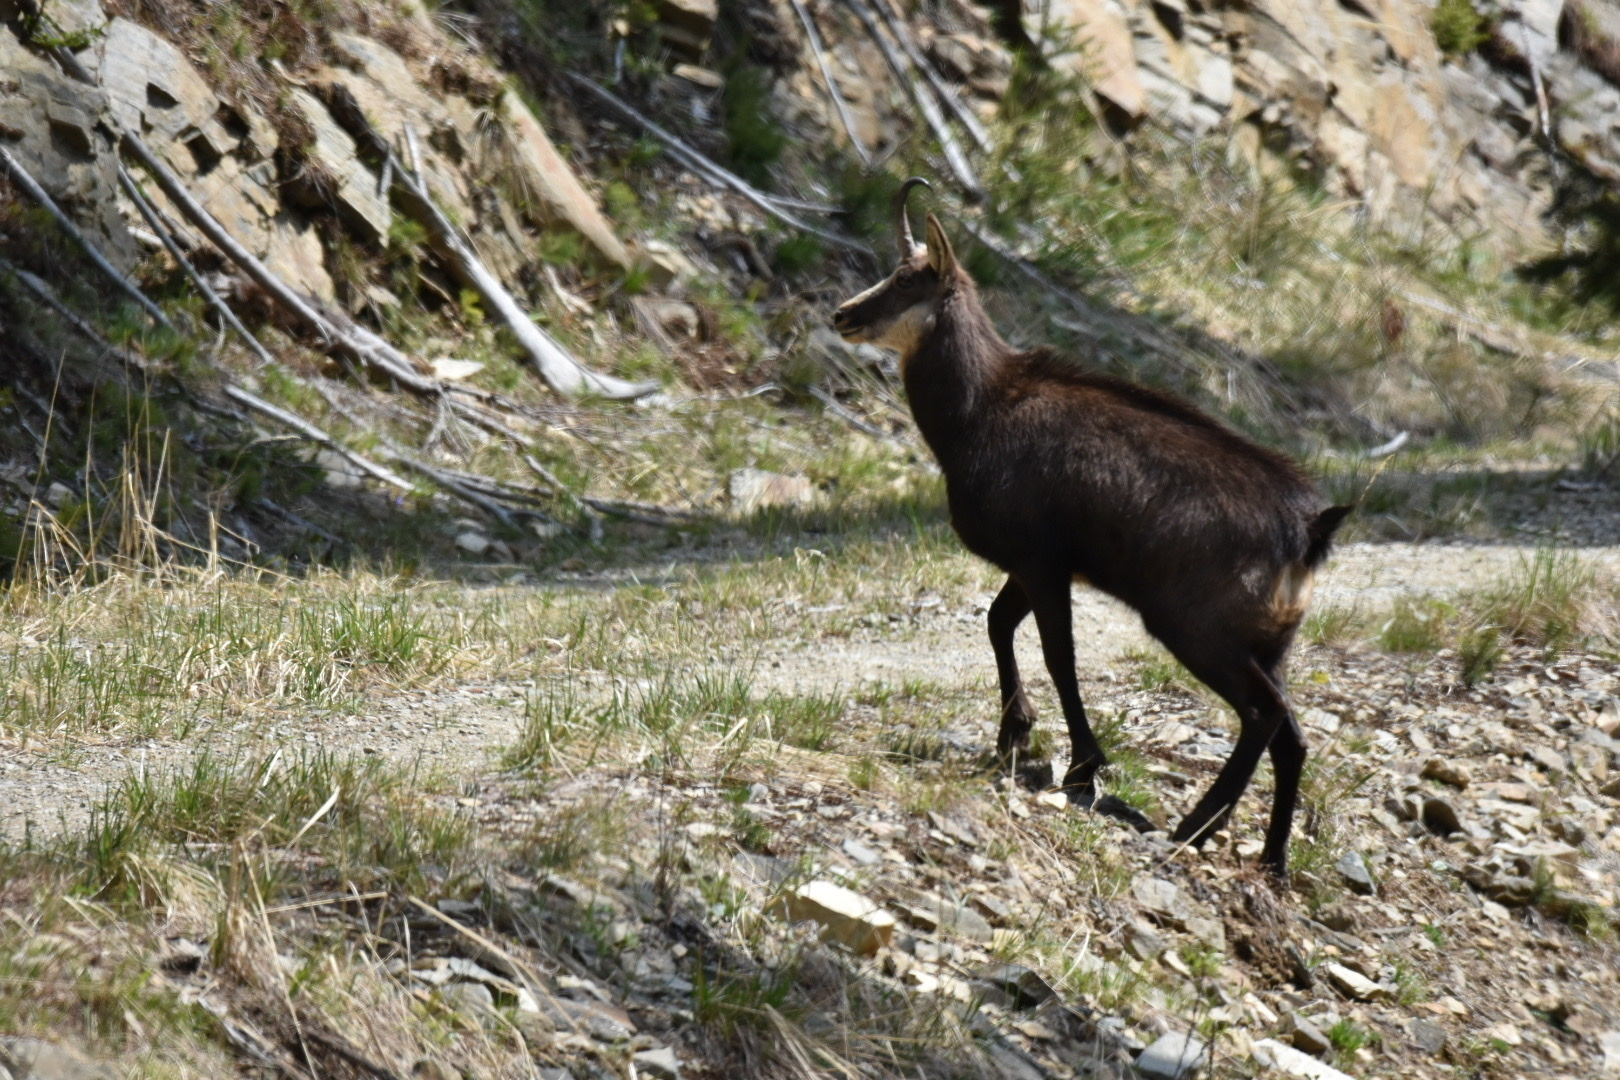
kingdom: Animalia
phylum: Chordata
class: Mammalia
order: Artiodactyla
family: Bovidae
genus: Rupicapra
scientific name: Rupicapra rupicapra
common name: Chamois
